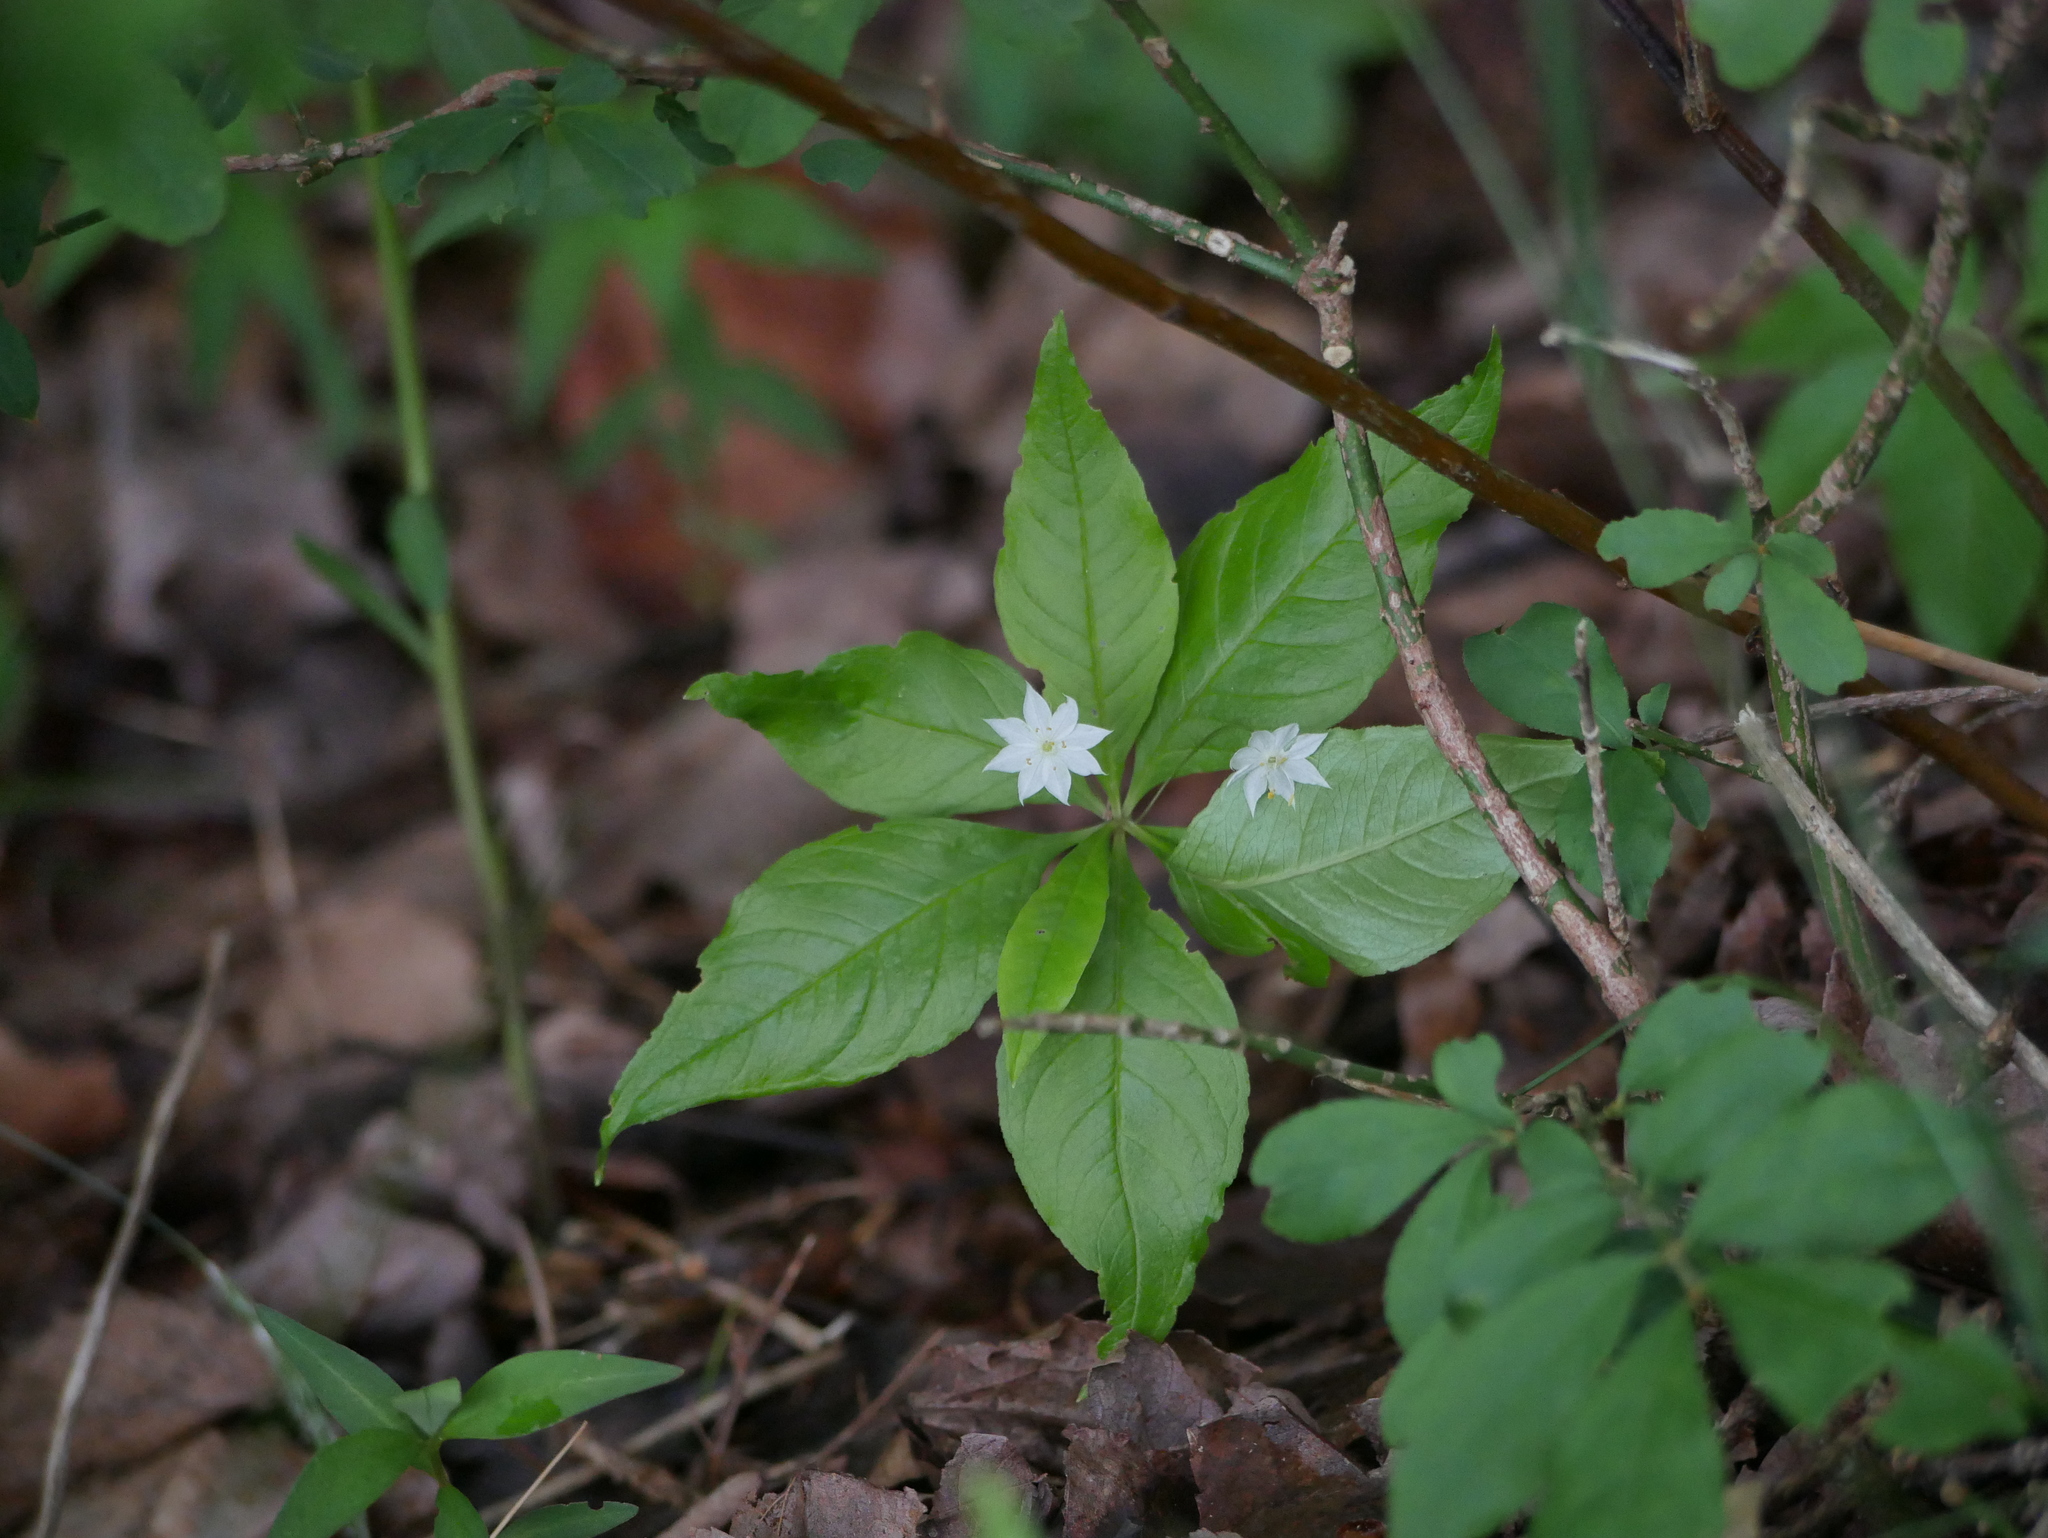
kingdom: Plantae
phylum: Tracheophyta
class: Magnoliopsida
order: Ericales
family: Primulaceae
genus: Lysimachia
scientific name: Lysimachia borealis
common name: American starflower
